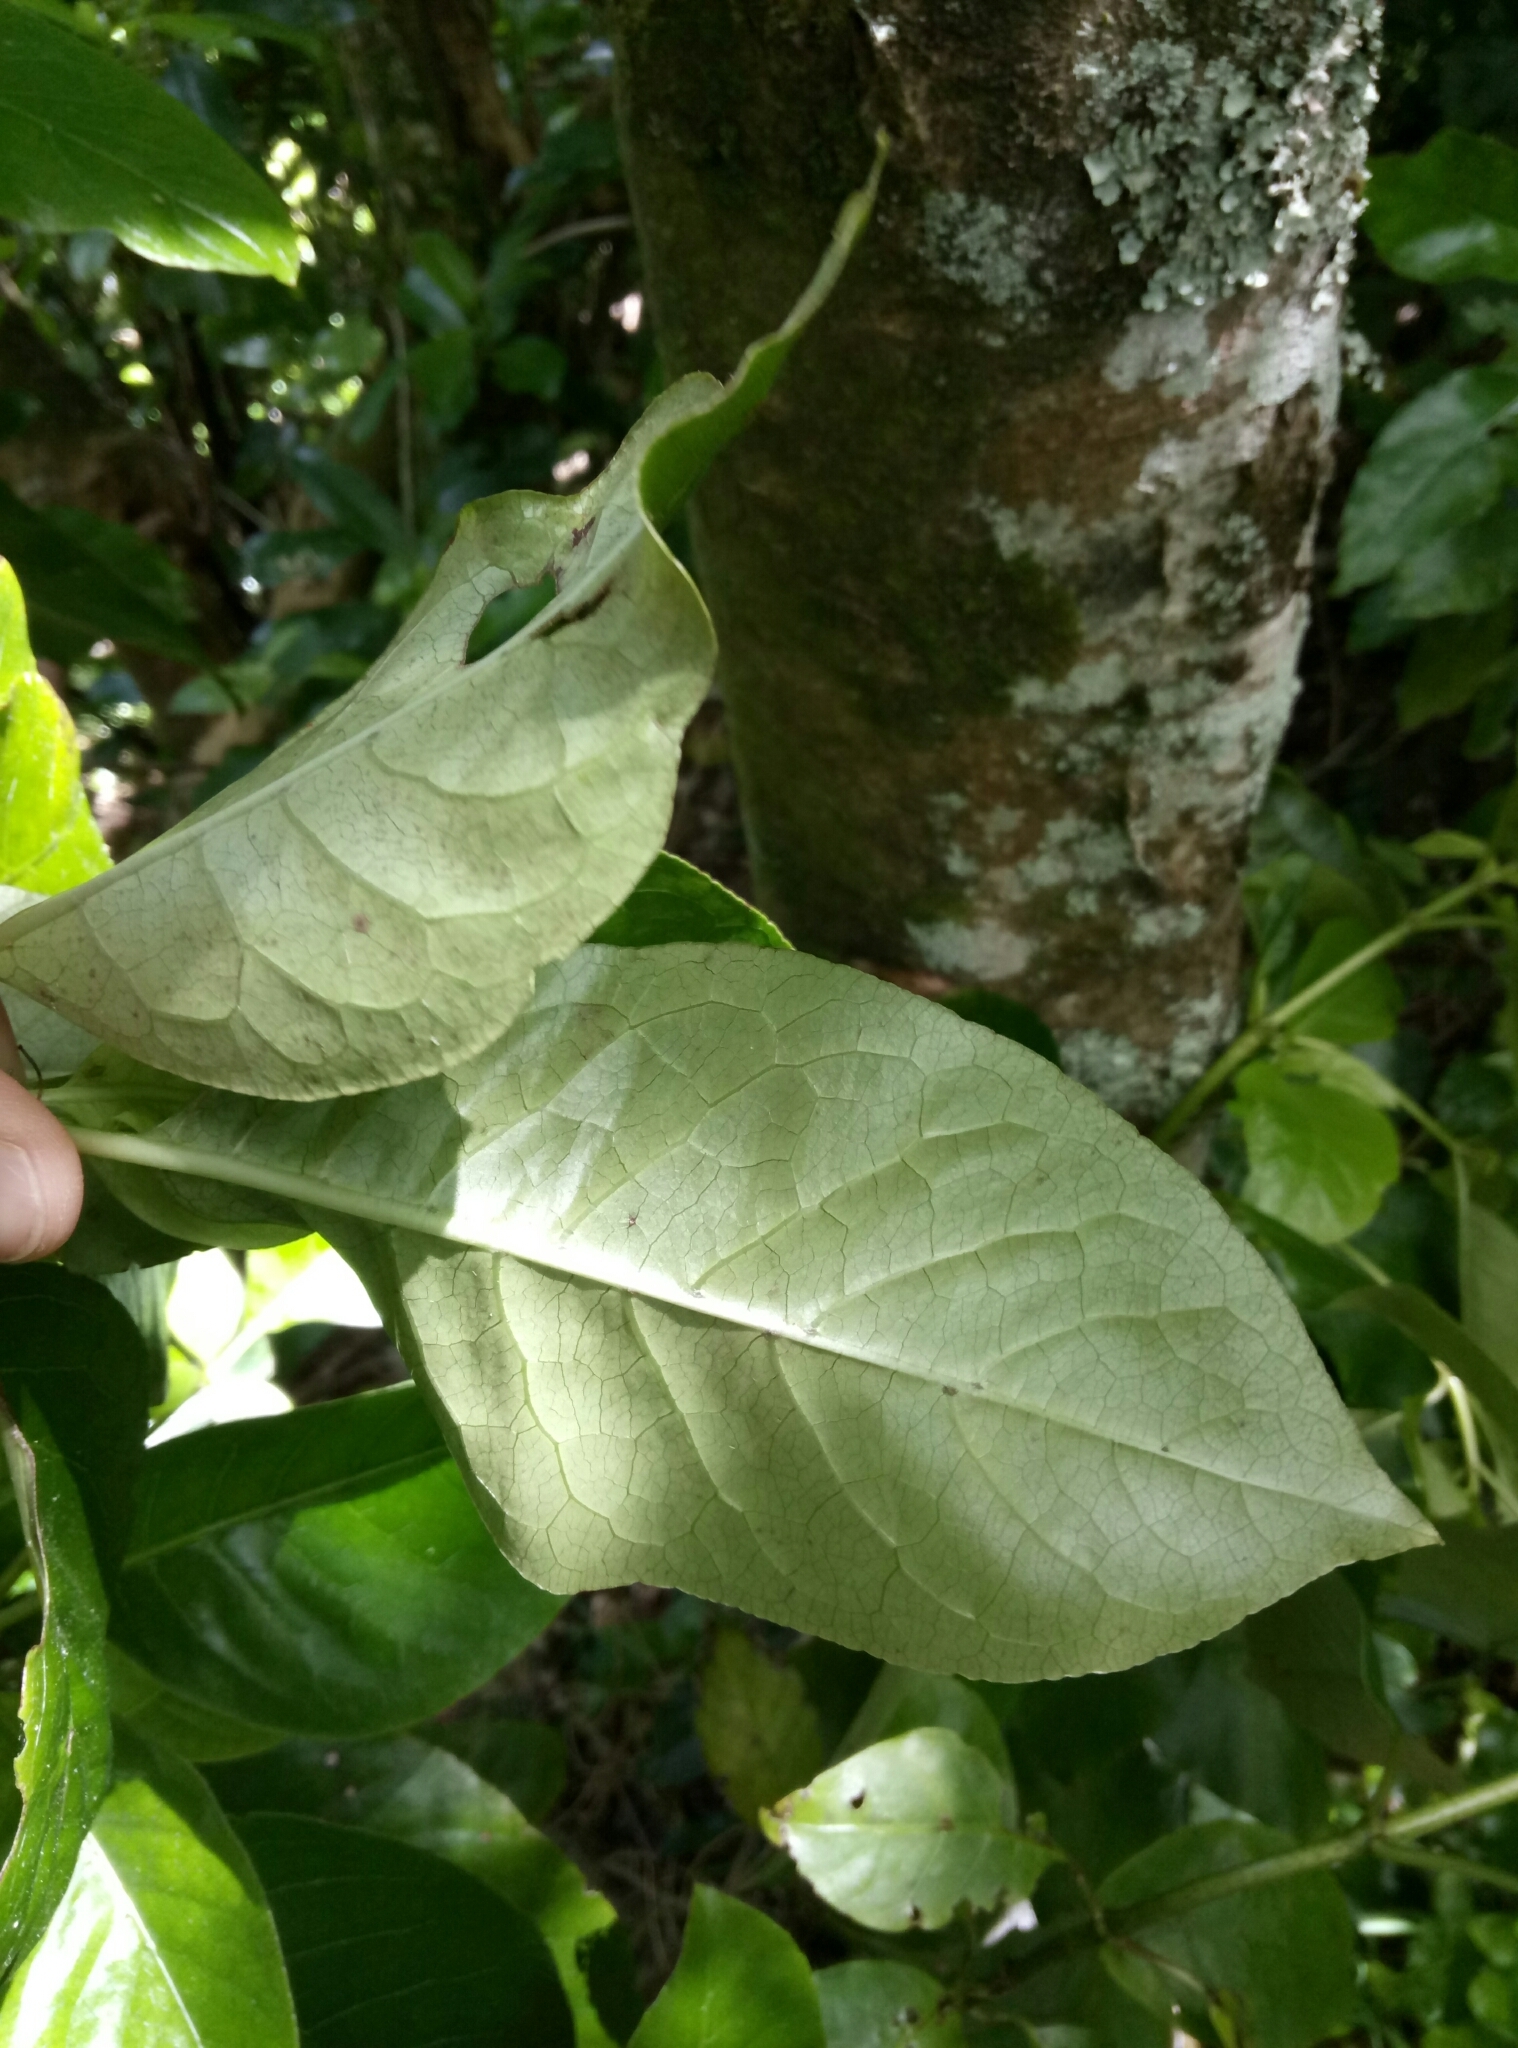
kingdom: Plantae
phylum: Tracheophyta
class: Magnoliopsida
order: Gentianales
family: Rubiaceae
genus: Coprosma
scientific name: Coprosma autumnalis
